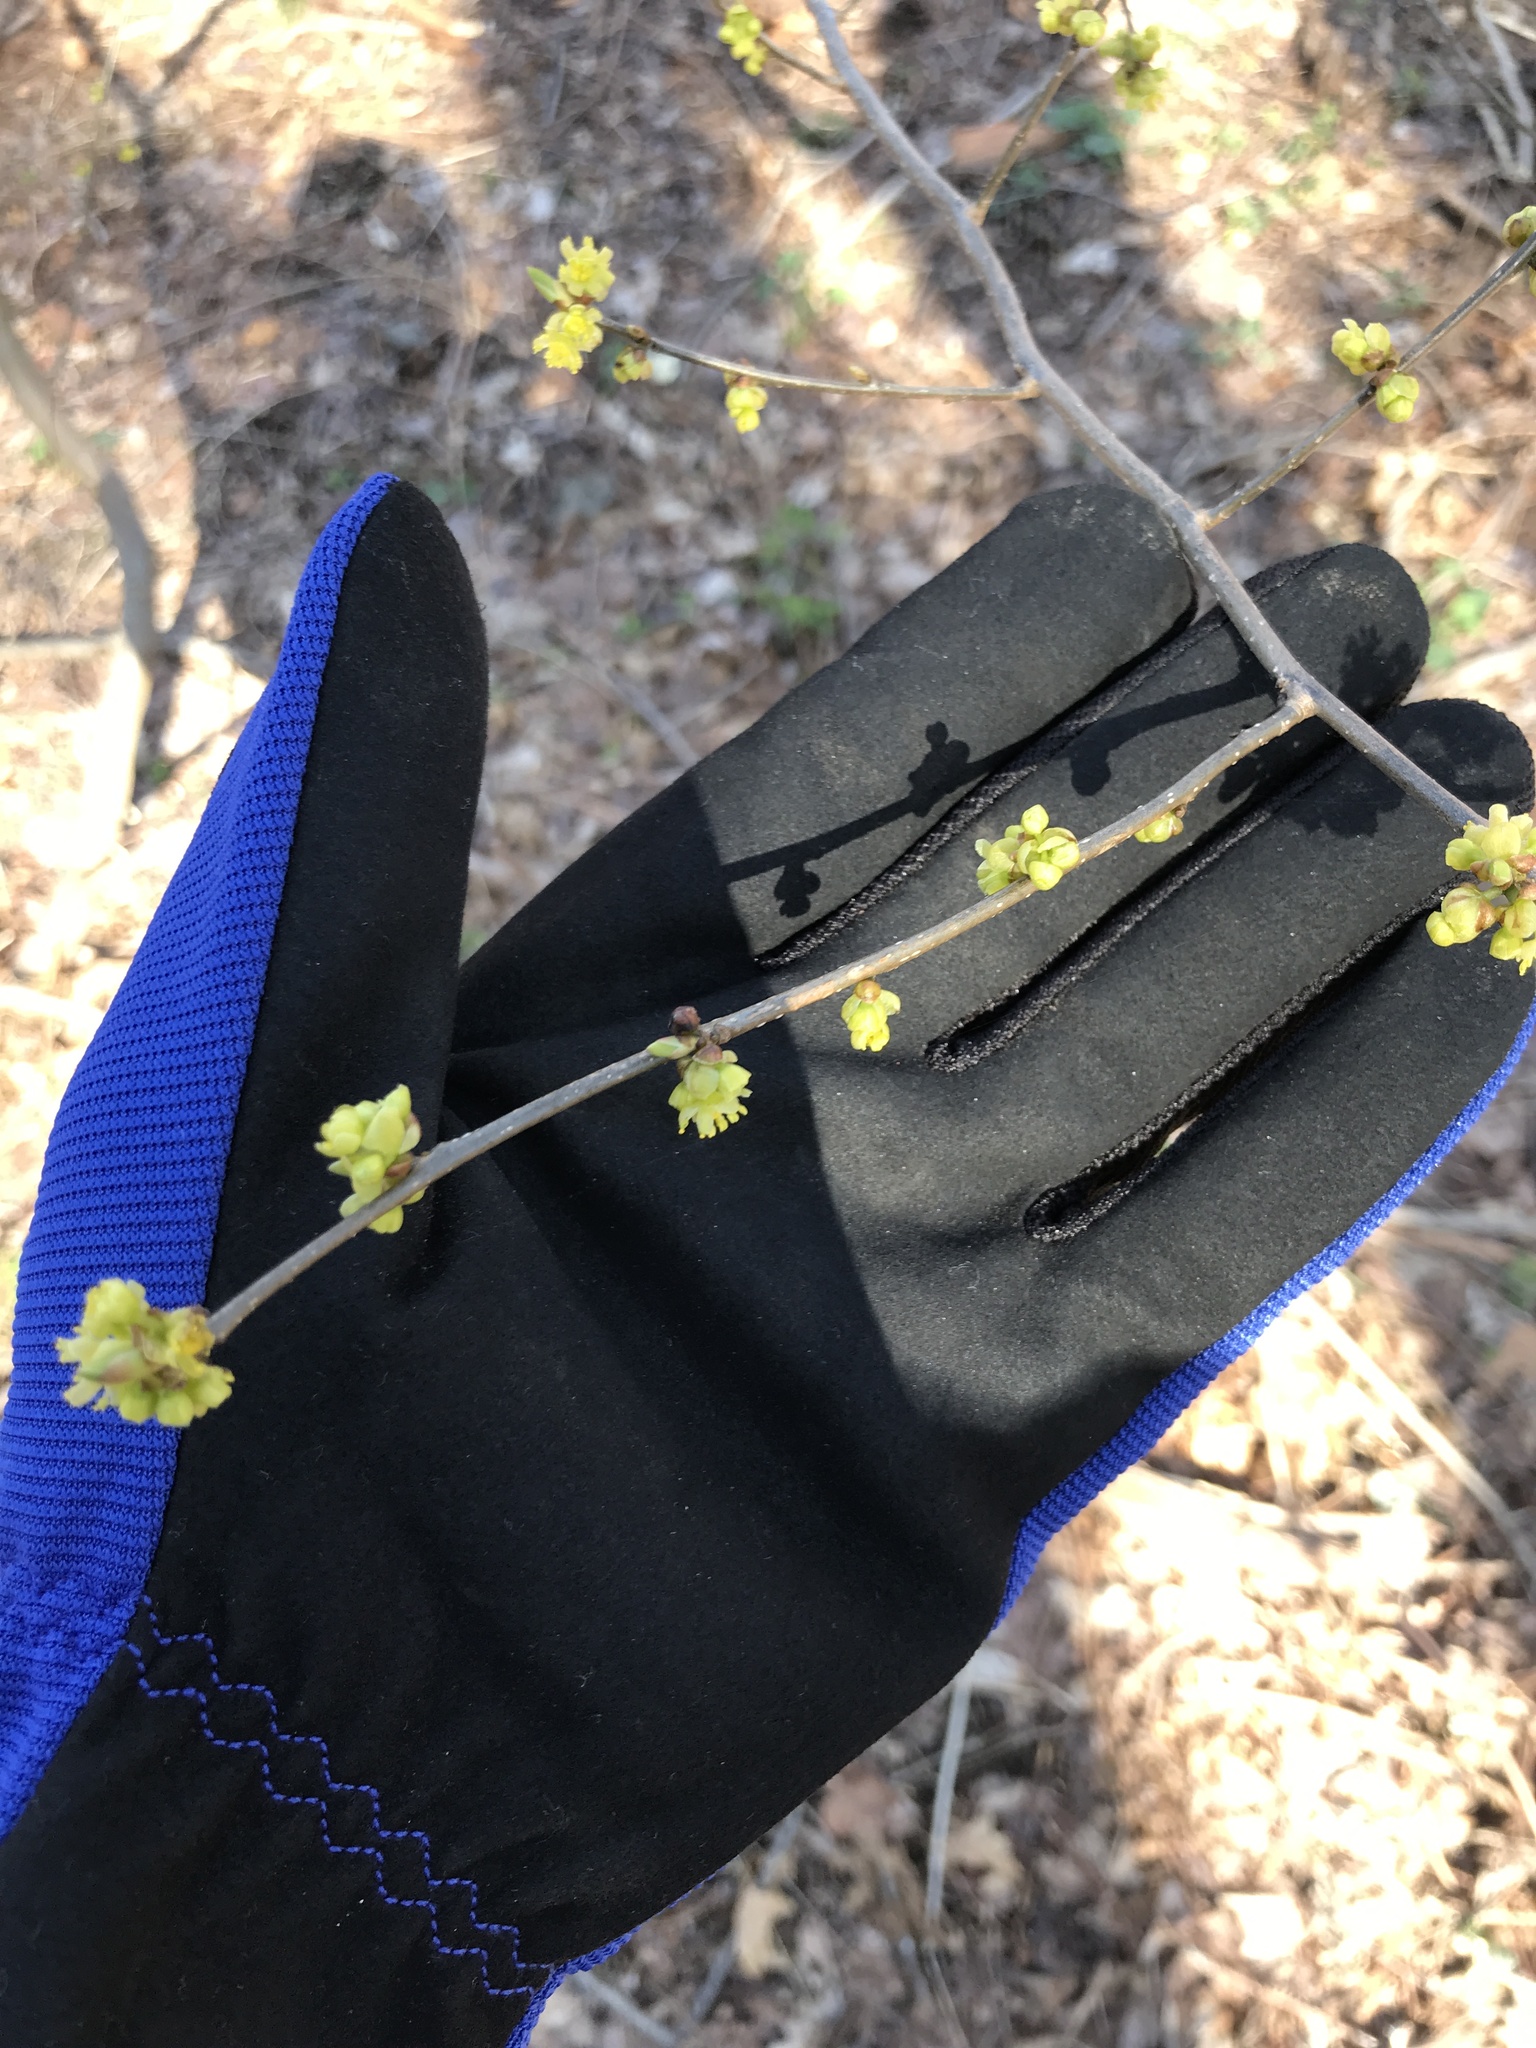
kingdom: Plantae
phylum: Tracheophyta
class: Magnoliopsida
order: Laurales
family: Lauraceae
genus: Lindera
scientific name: Lindera benzoin
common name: Spicebush
